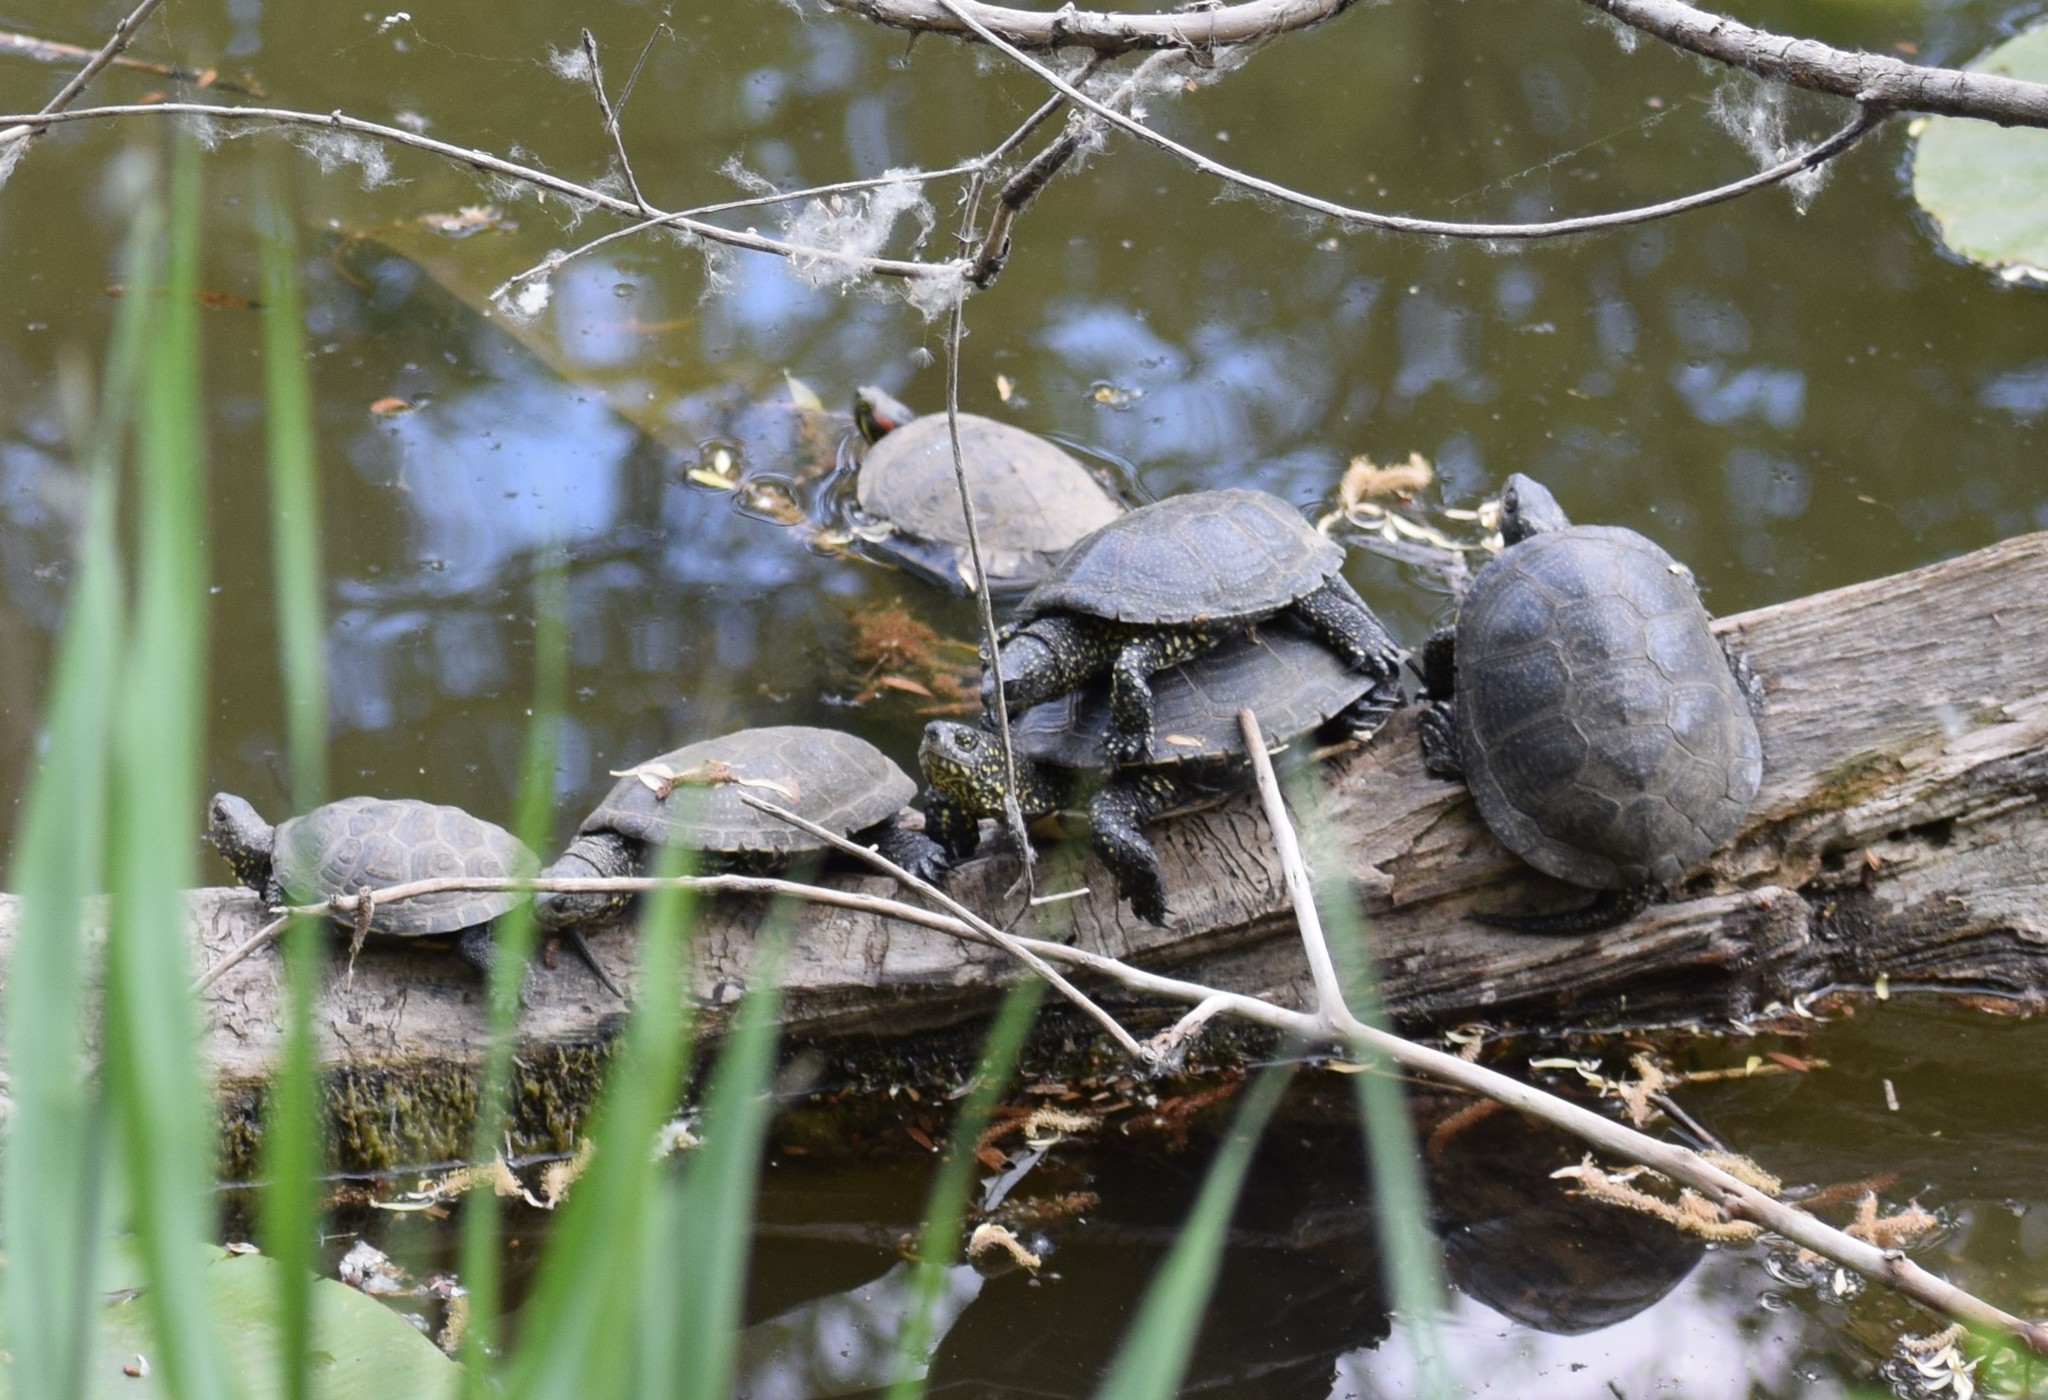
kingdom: Animalia
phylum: Chordata
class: Testudines
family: Emydidae
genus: Emys
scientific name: Emys orbicularis
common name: European pond turtle
